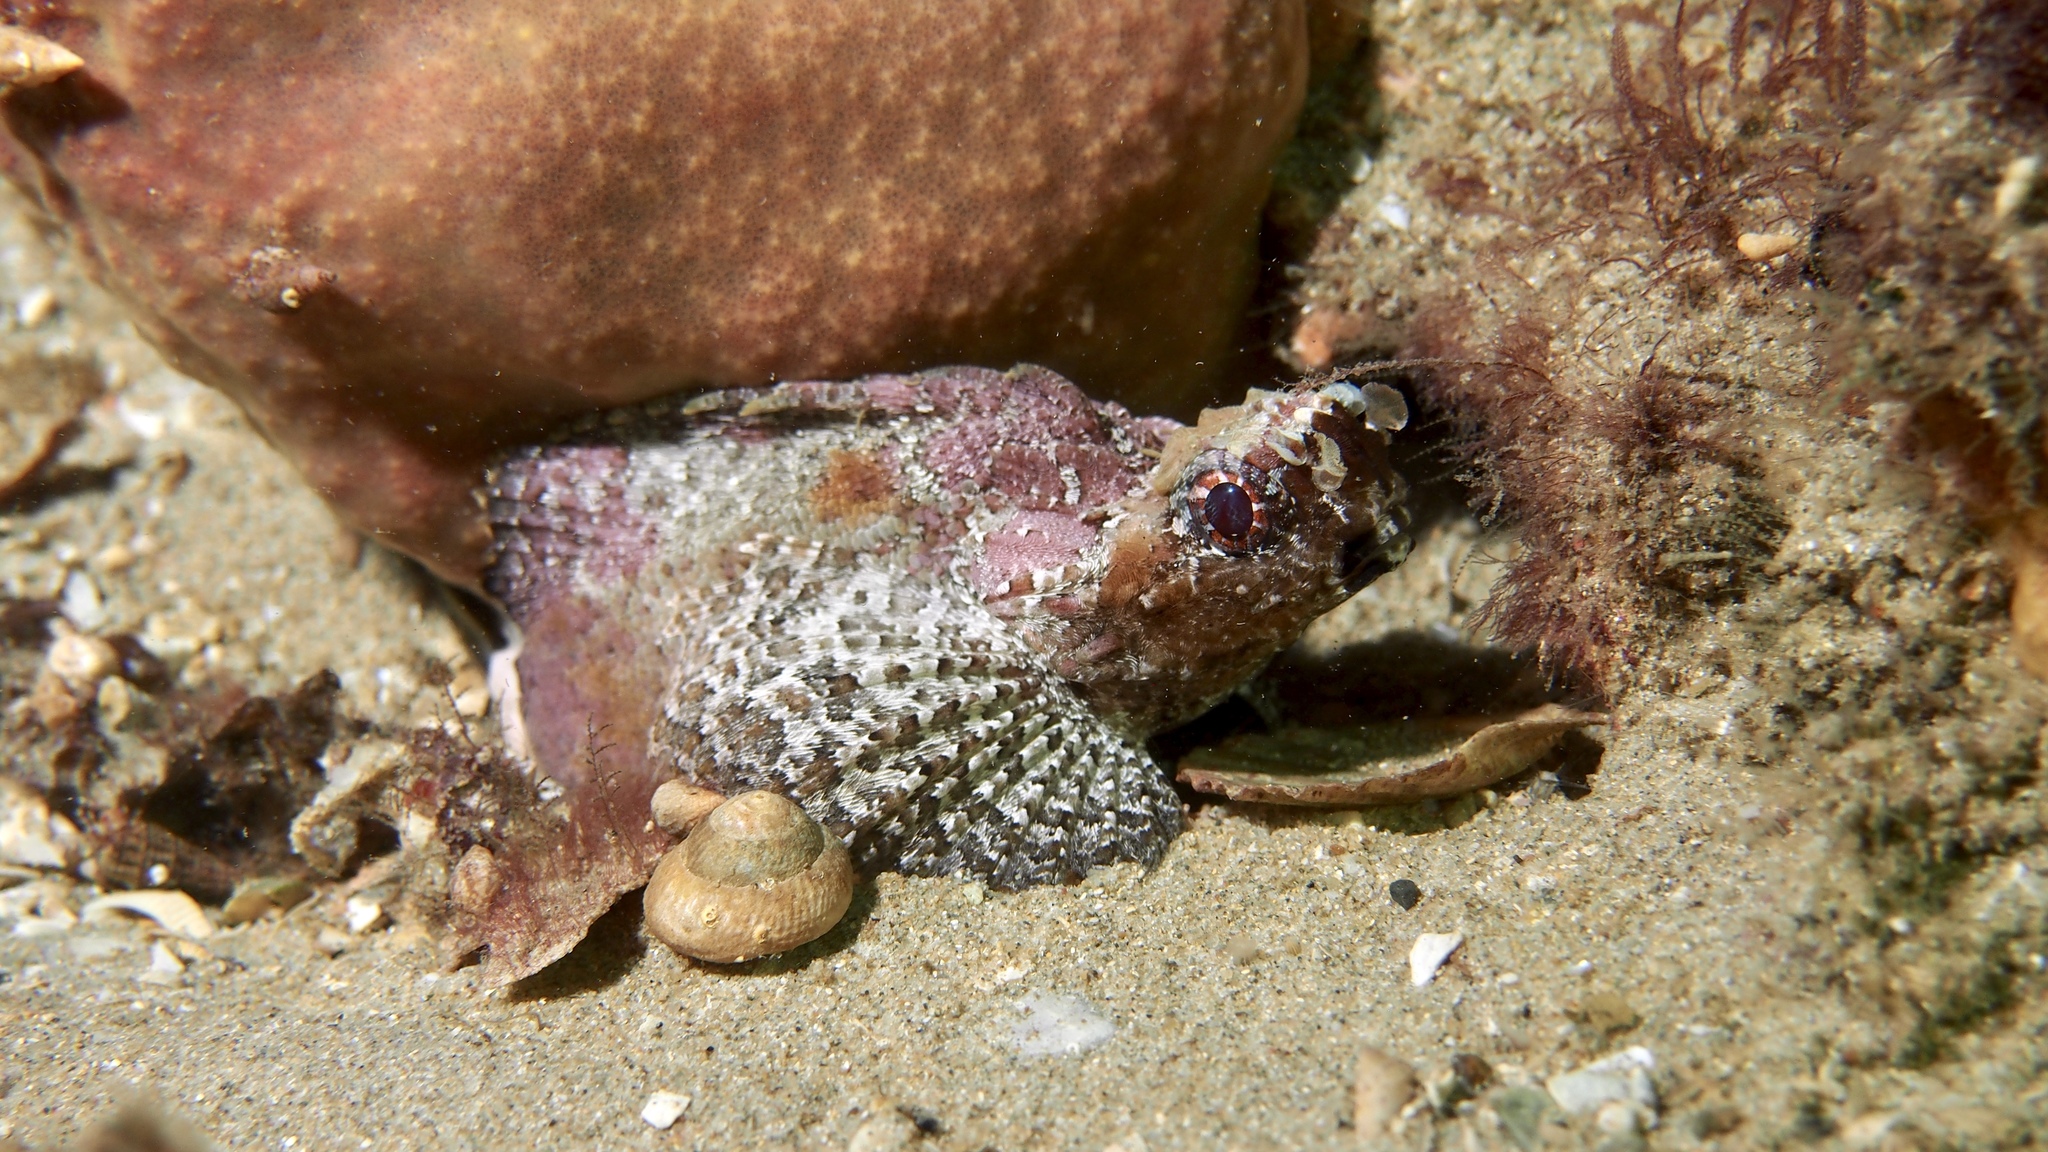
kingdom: Animalia
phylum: Chordata
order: Scorpaeniformes
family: Tetrarogidae
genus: Glyptauchen
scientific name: Glyptauchen panduratus
